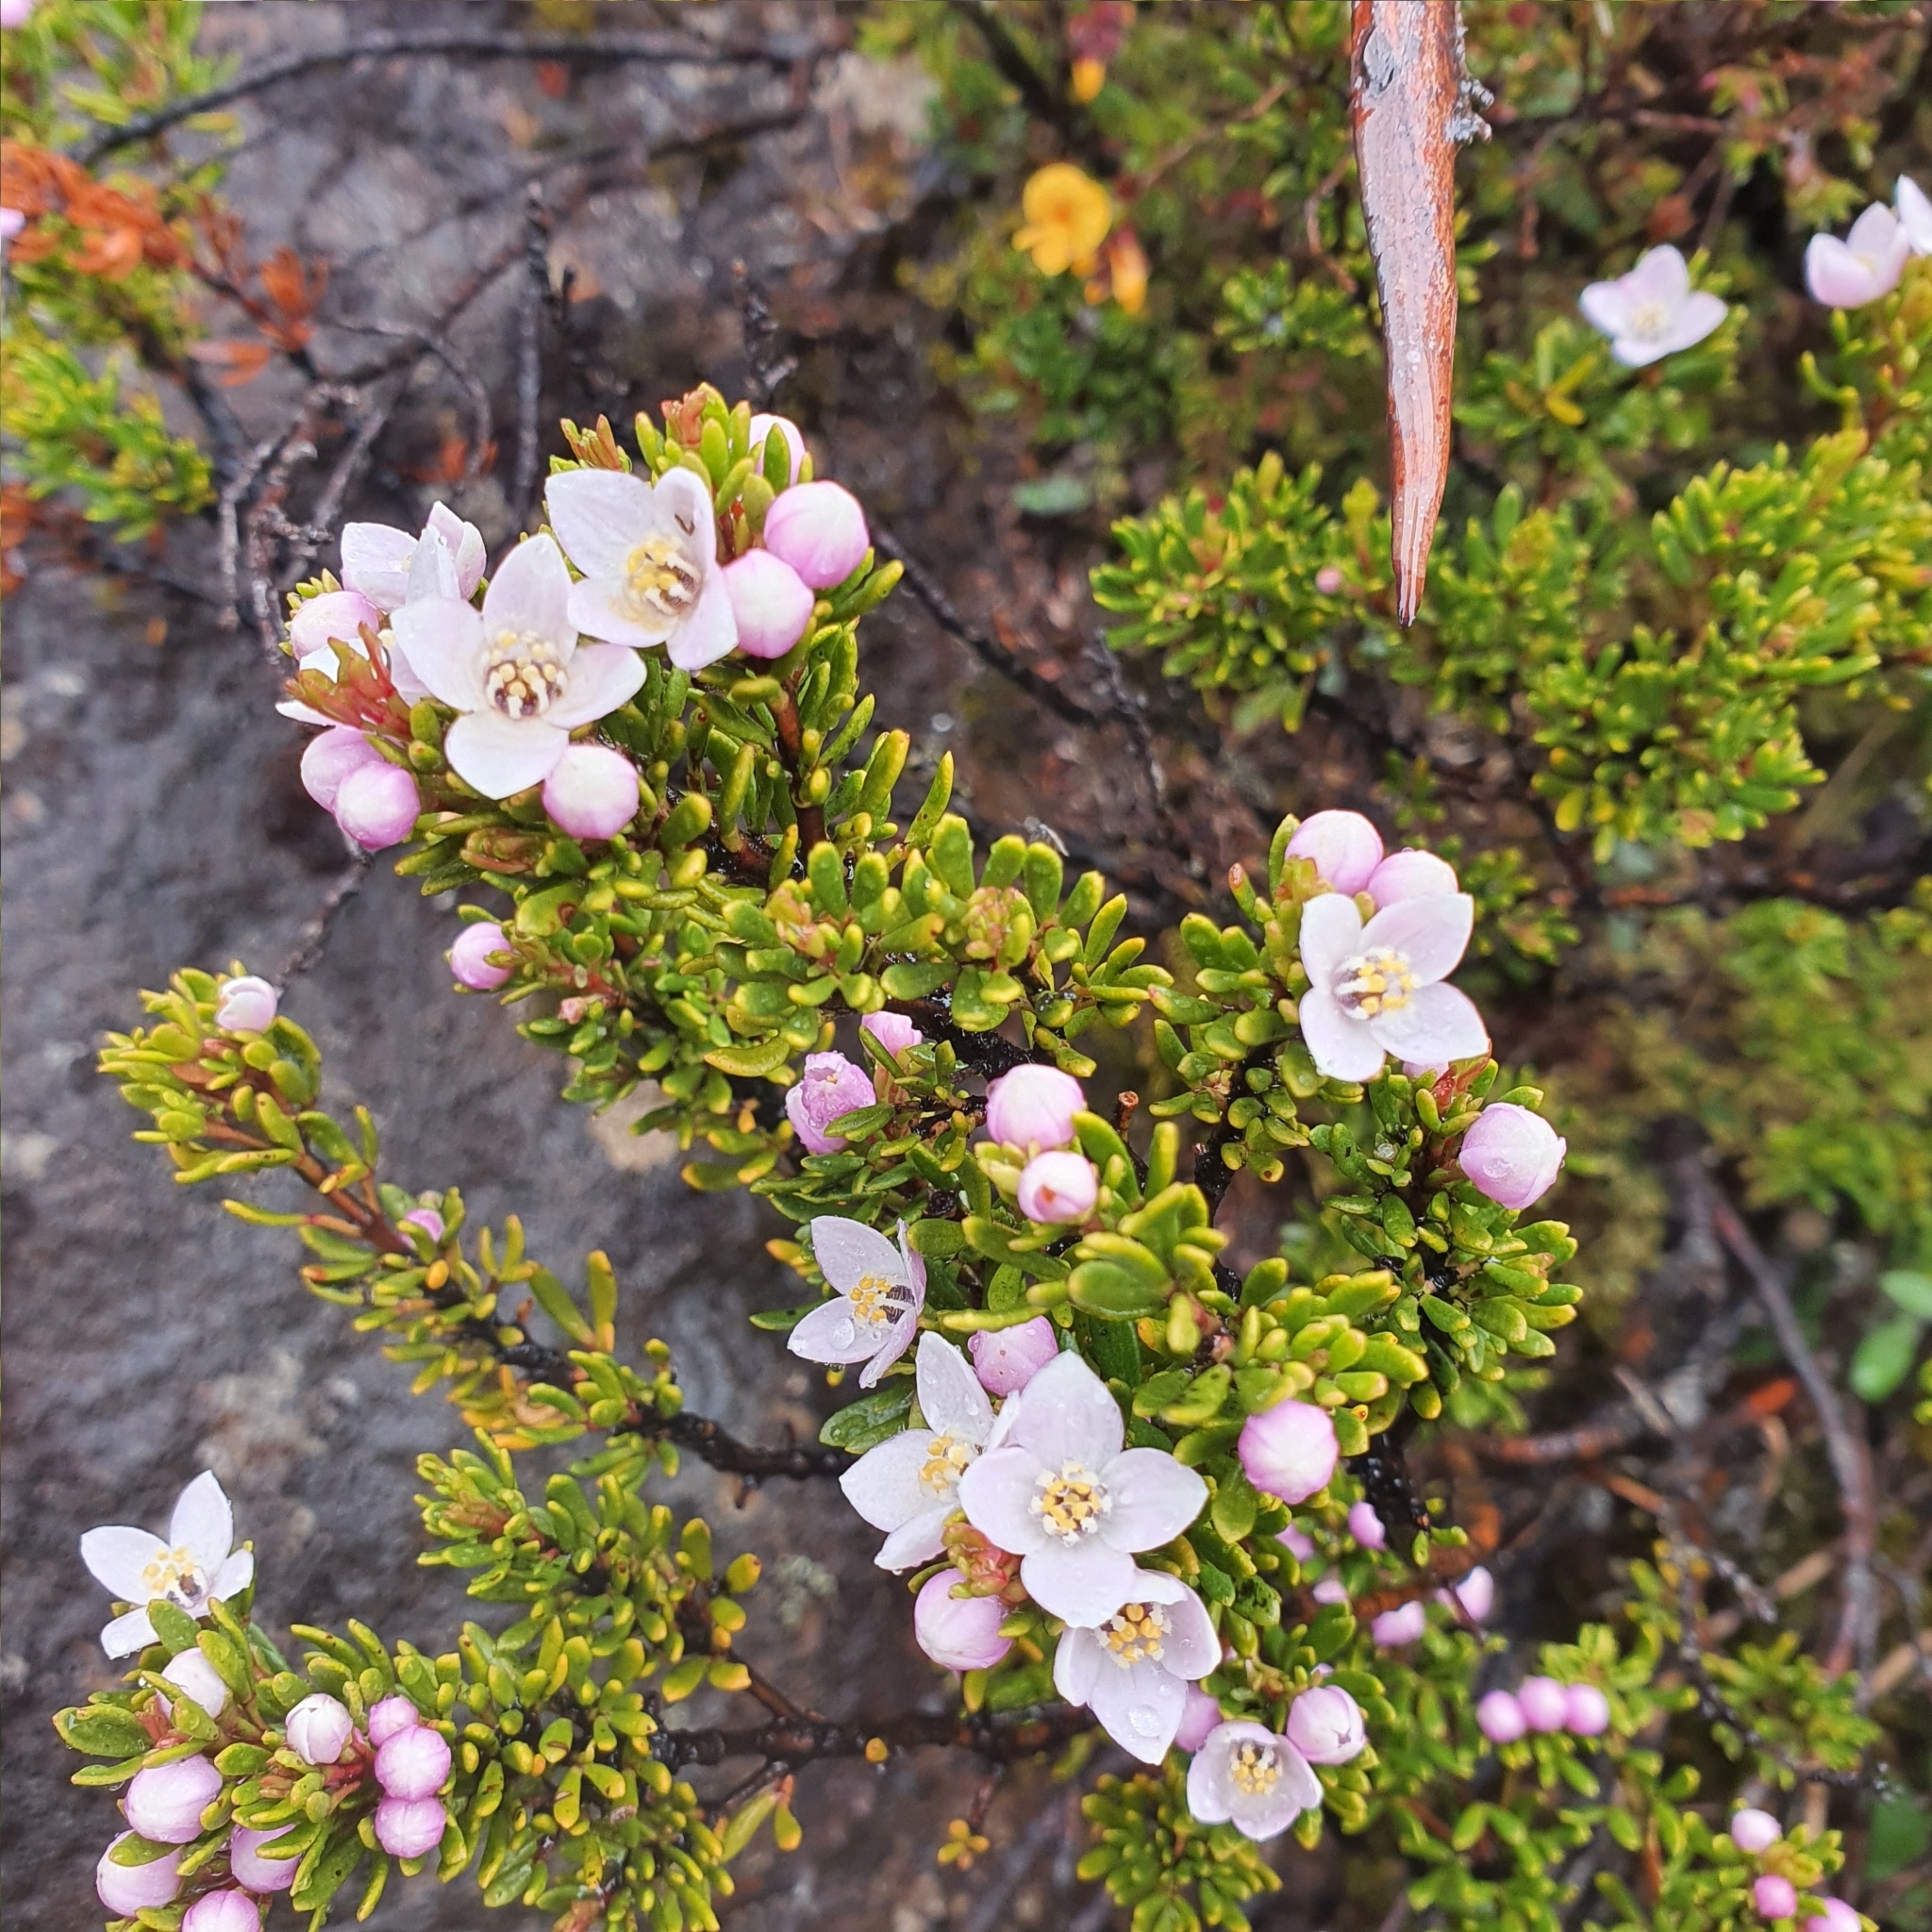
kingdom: Plantae
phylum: Tracheophyta
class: Magnoliopsida
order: Sapindales
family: Rutaceae
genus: Boronia
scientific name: Boronia citriodora
